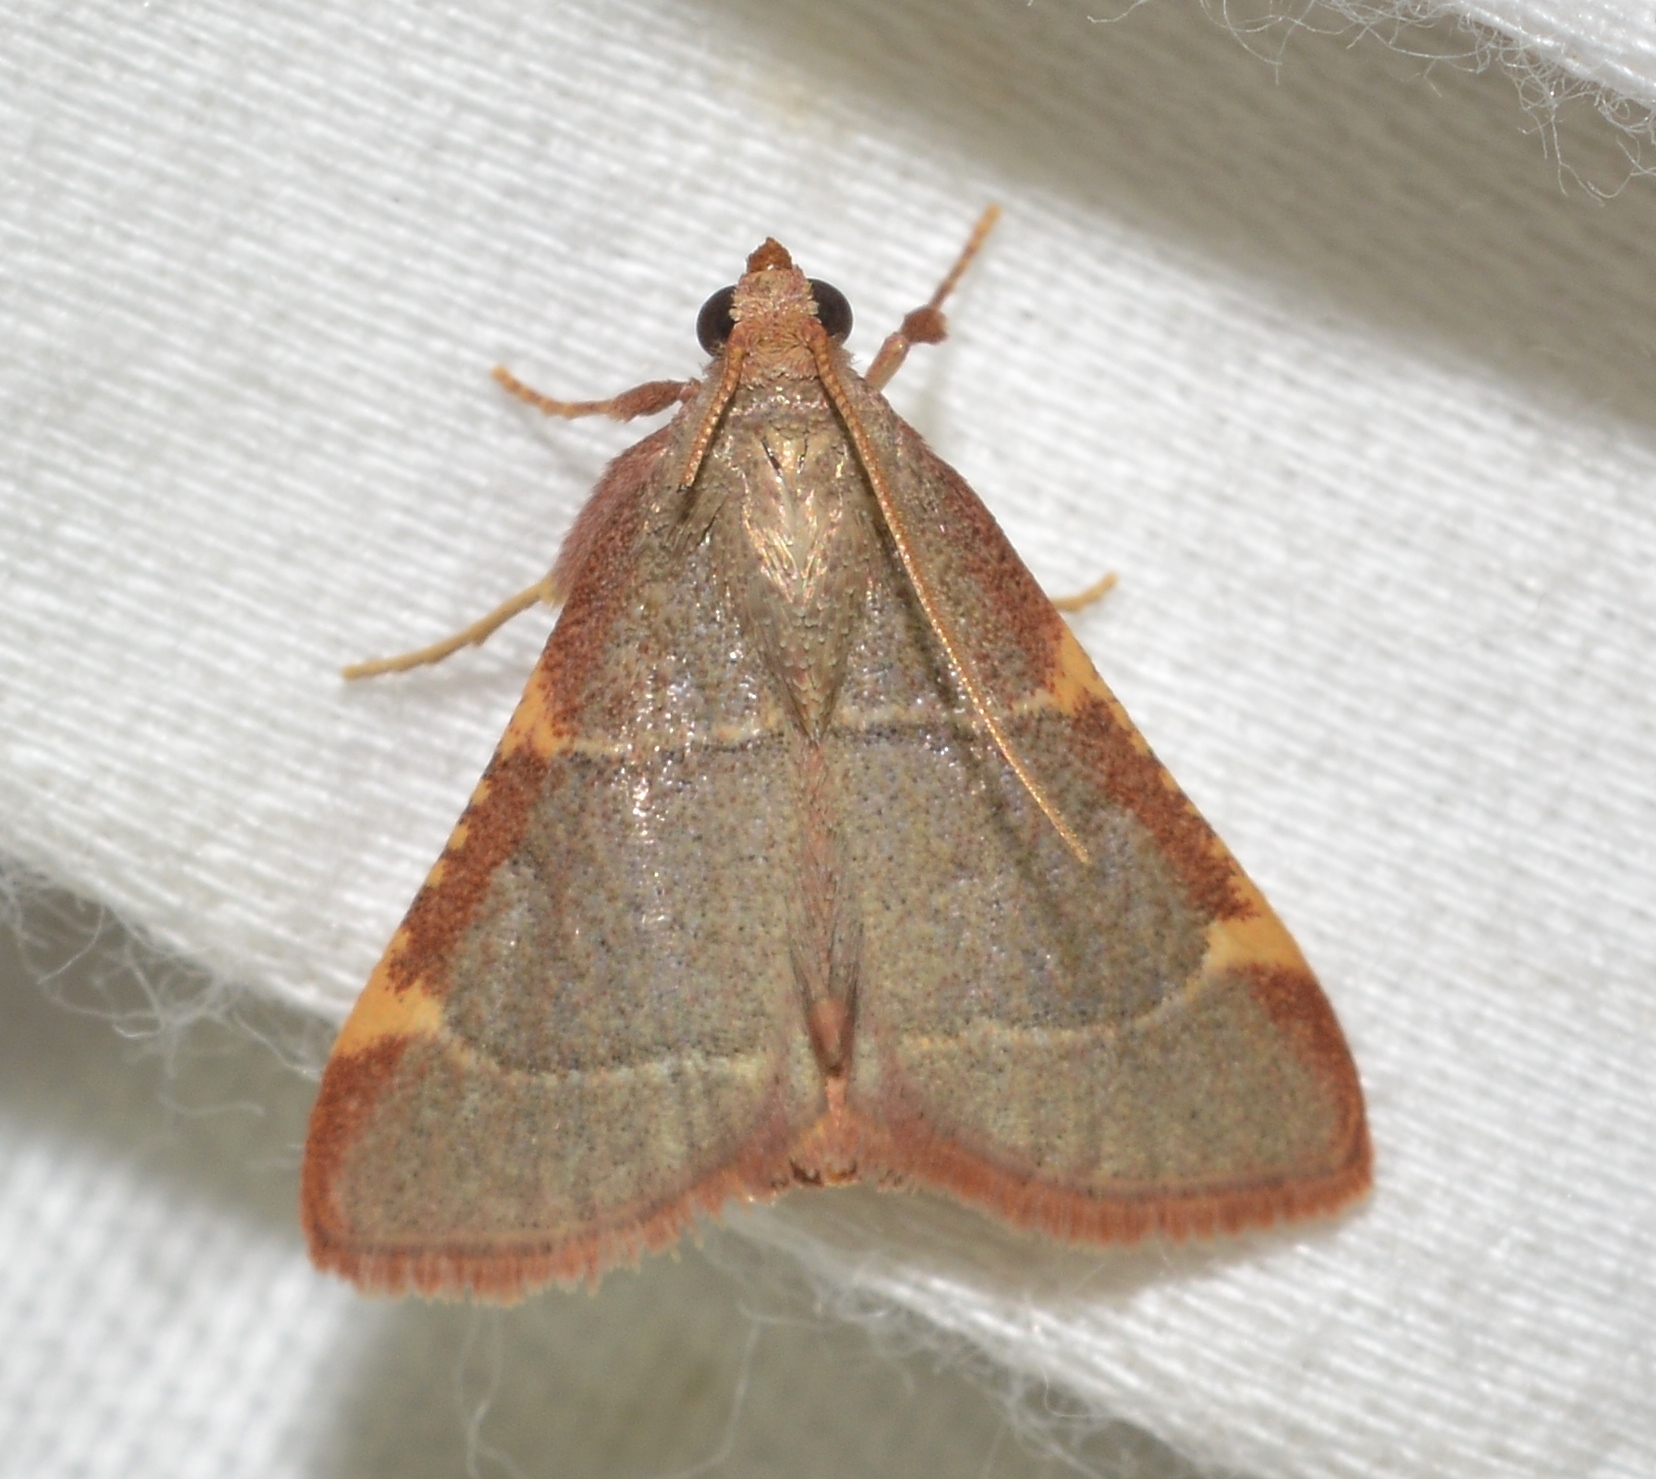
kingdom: Animalia
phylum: Arthropoda
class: Insecta
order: Lepidoptera
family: Pyralidae
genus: Hypsopygia
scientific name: Hypsopygia binodulalis
